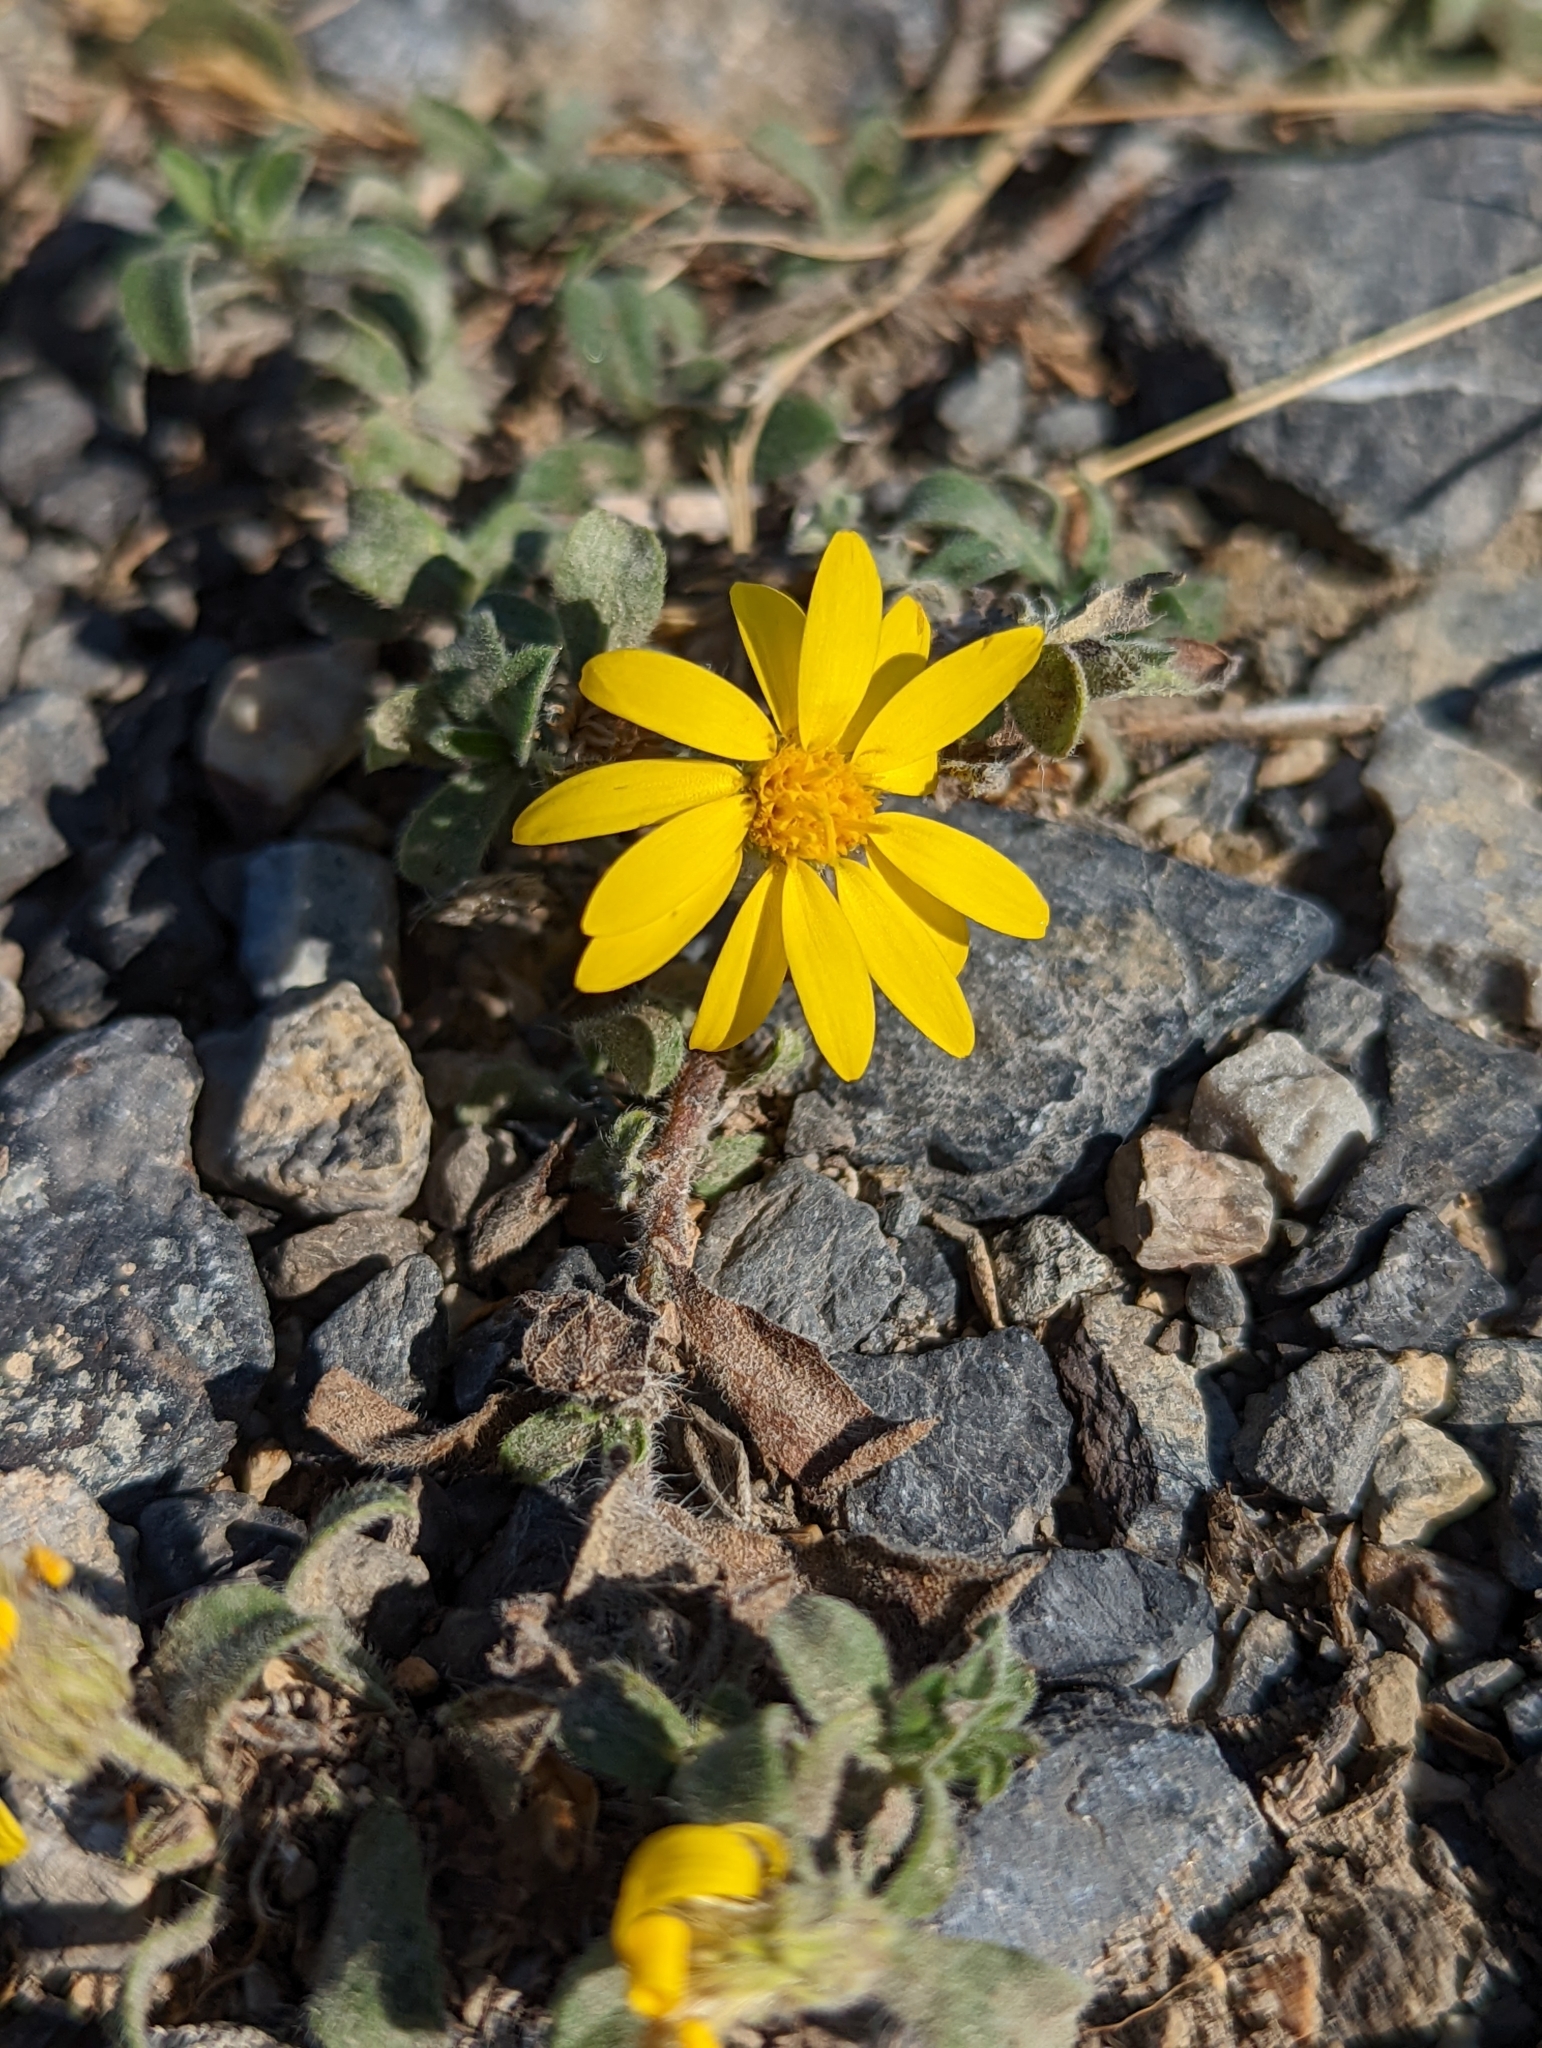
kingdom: Plantae
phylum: Tracheophyta
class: Magnoliopsida
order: Asterales
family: Asteraceae
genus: Heterotheca
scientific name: Heterotheca villosa
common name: Hairy false goldenaster
